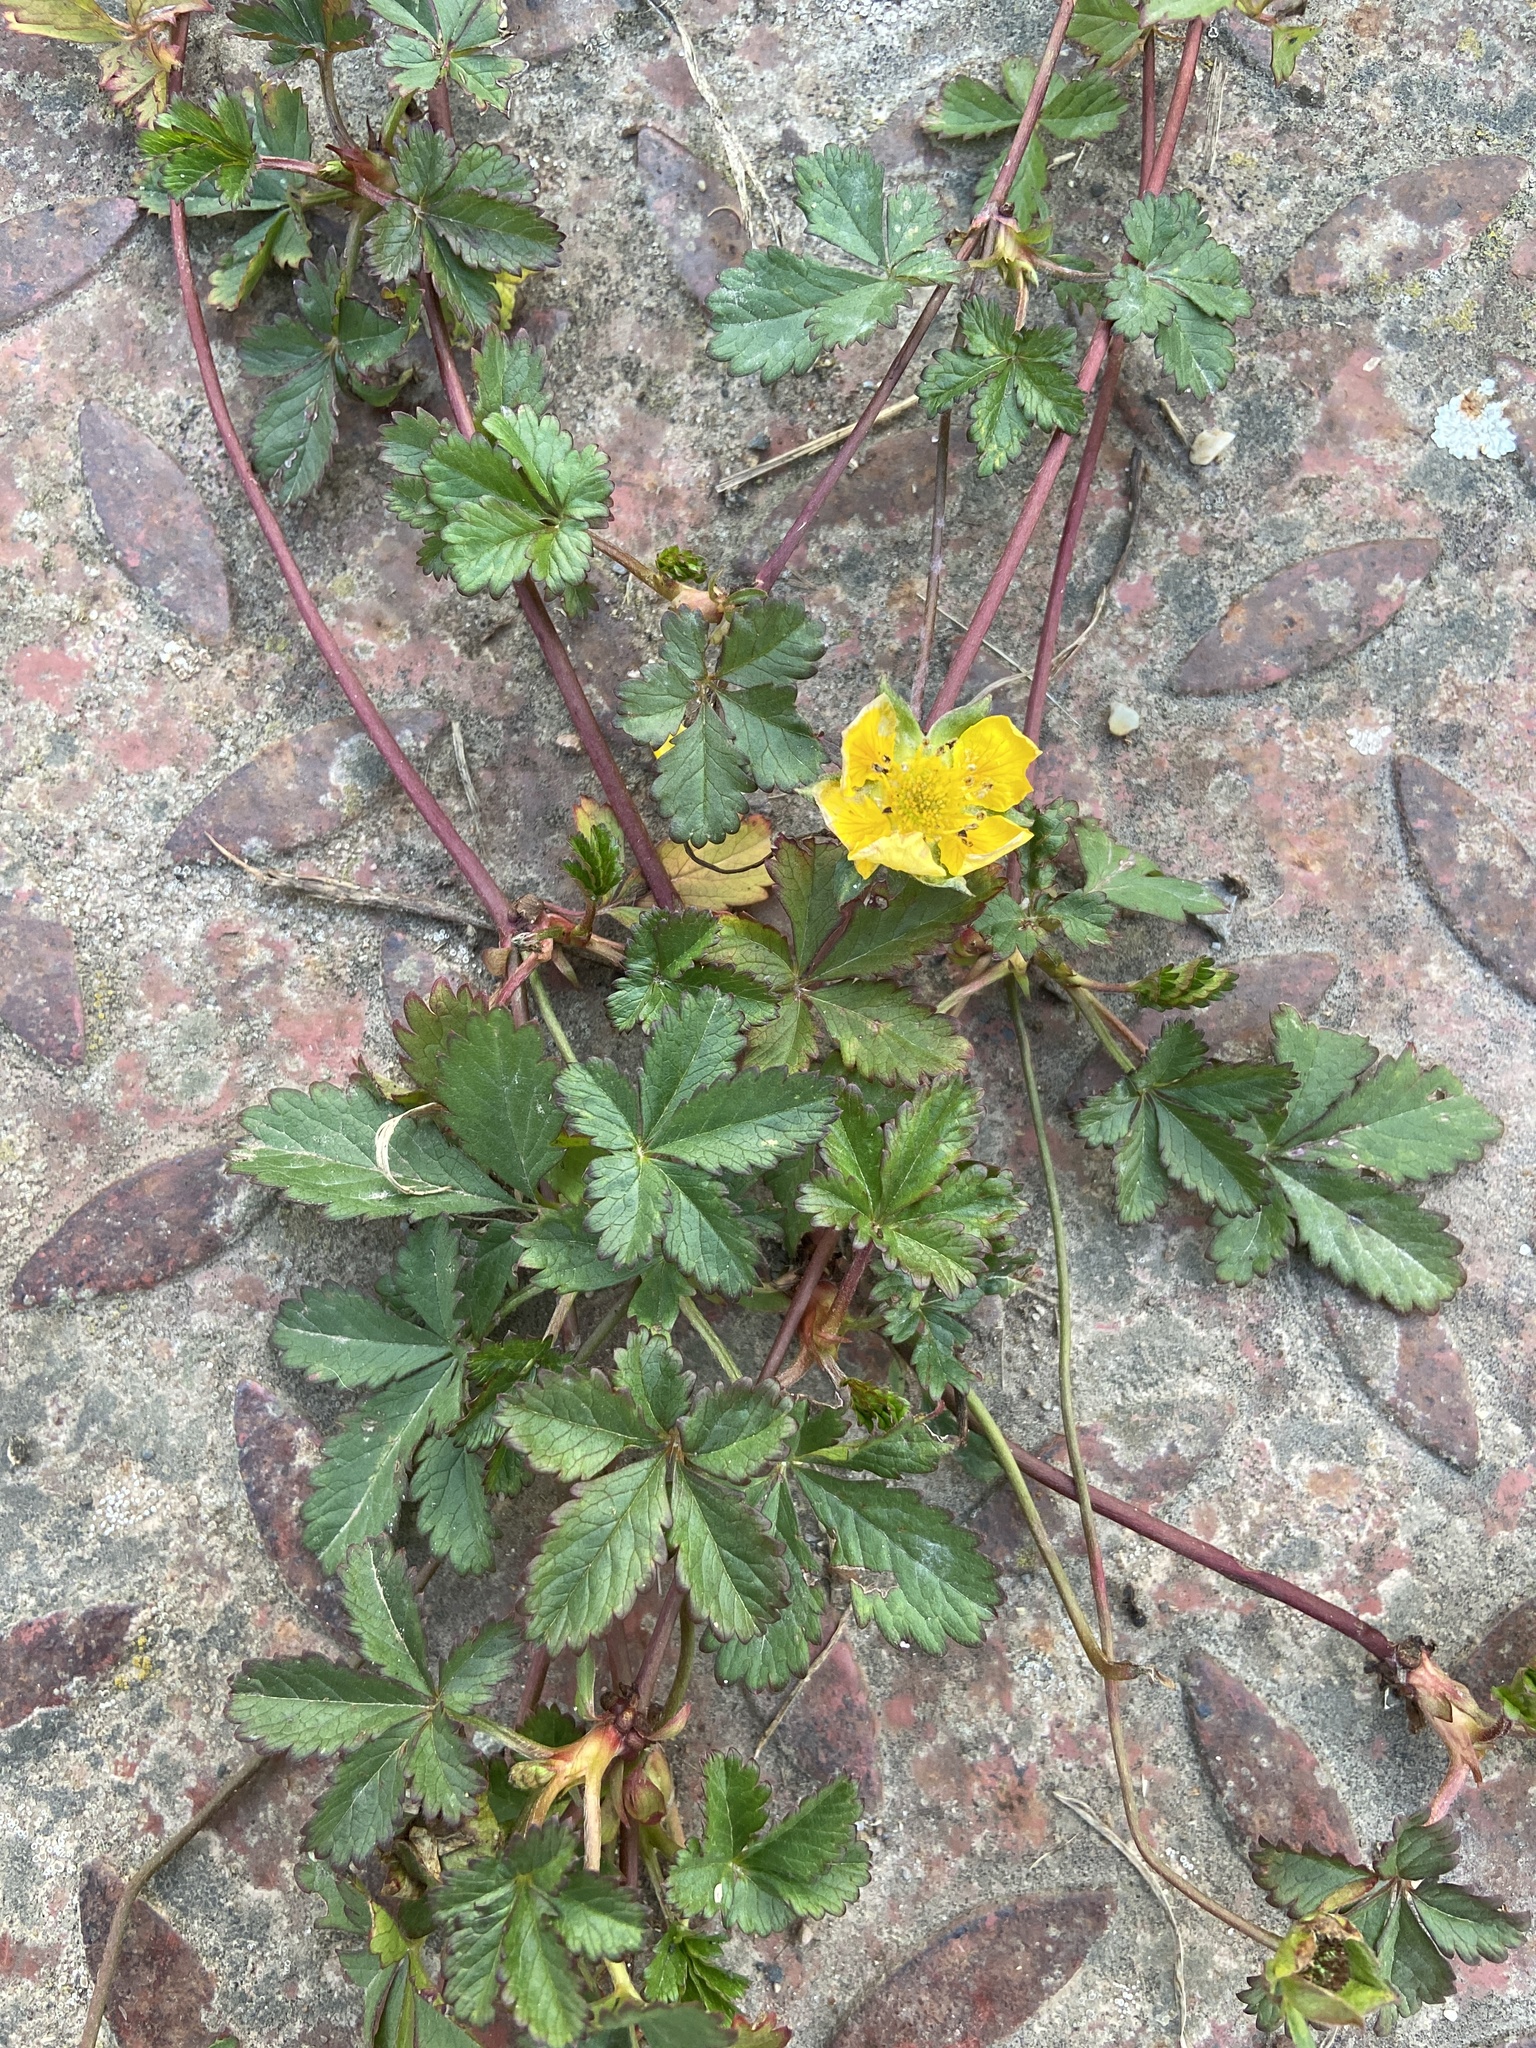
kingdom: Plantae
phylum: Tracheophyta
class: Magnoliopsida
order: Rosales
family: Rosaceae
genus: Potentilla
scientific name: Potentilla reptans
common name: Creeping cinquefoil
